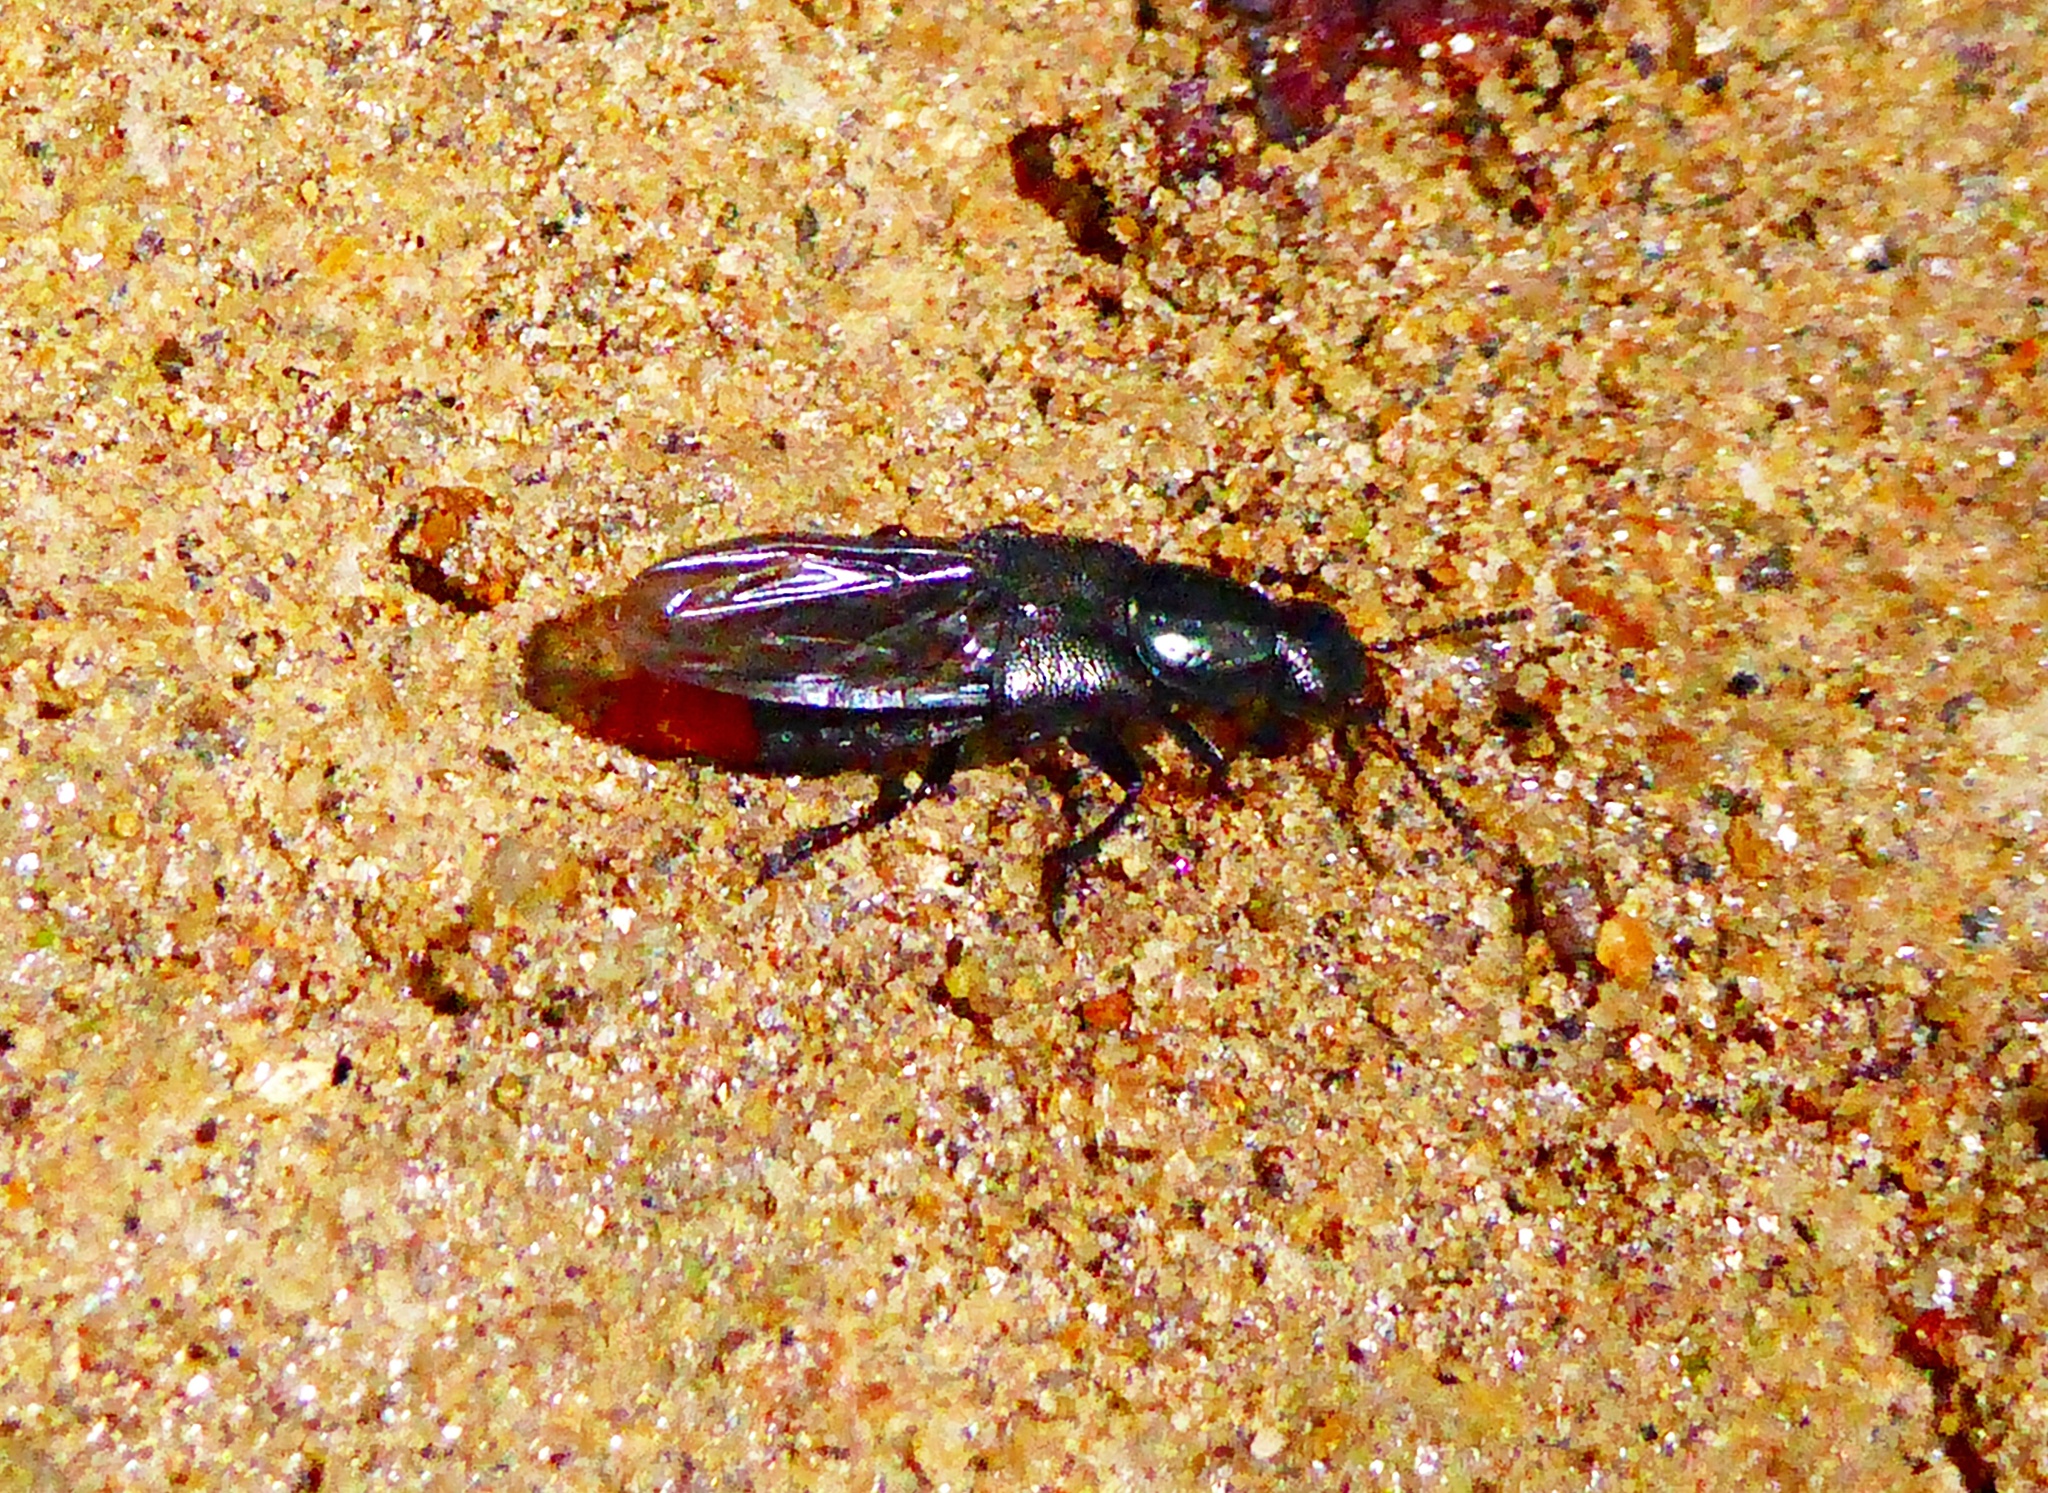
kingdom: Animalia
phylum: Arthropoda
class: Insecta
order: Coleoptera
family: Staphylinidae
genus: Xenopygus
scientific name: Xenopygus analis
